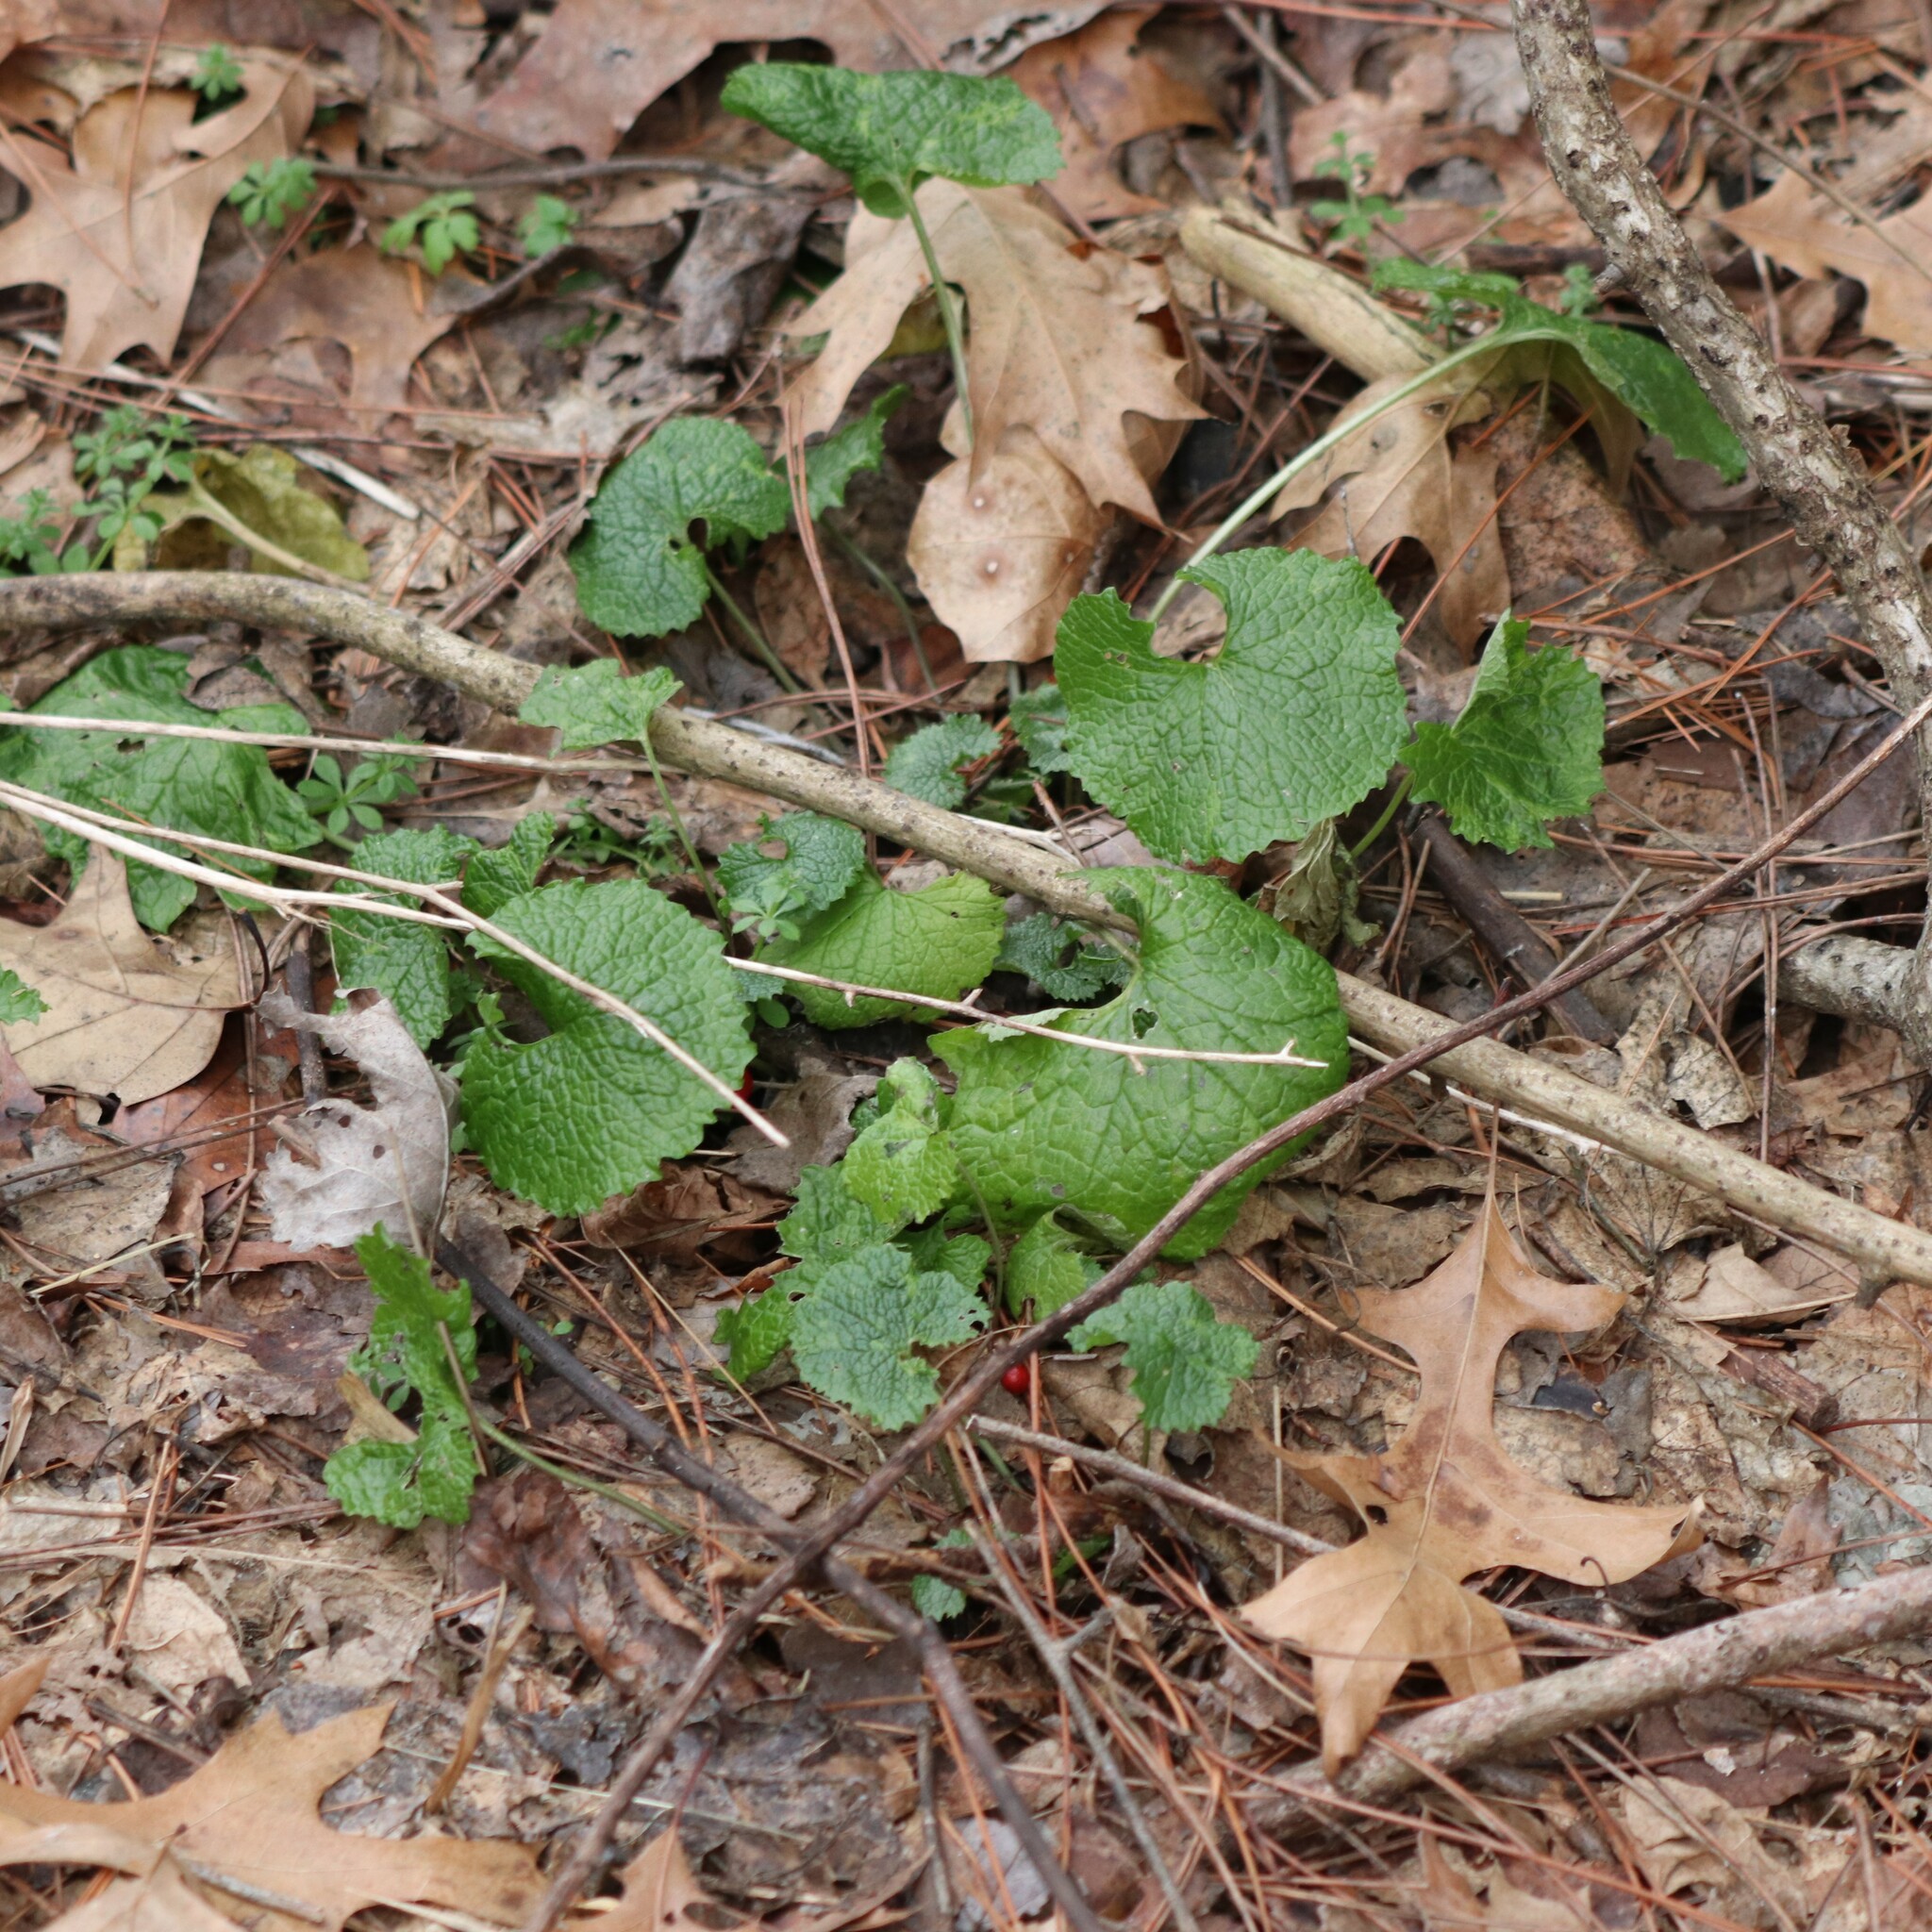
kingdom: Plantae
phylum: Tracheophyta
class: Magnoliopsida
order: Brassicales
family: Brassicaceae
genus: Alliaria
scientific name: Alliaria petiolata
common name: Garlic mustard
